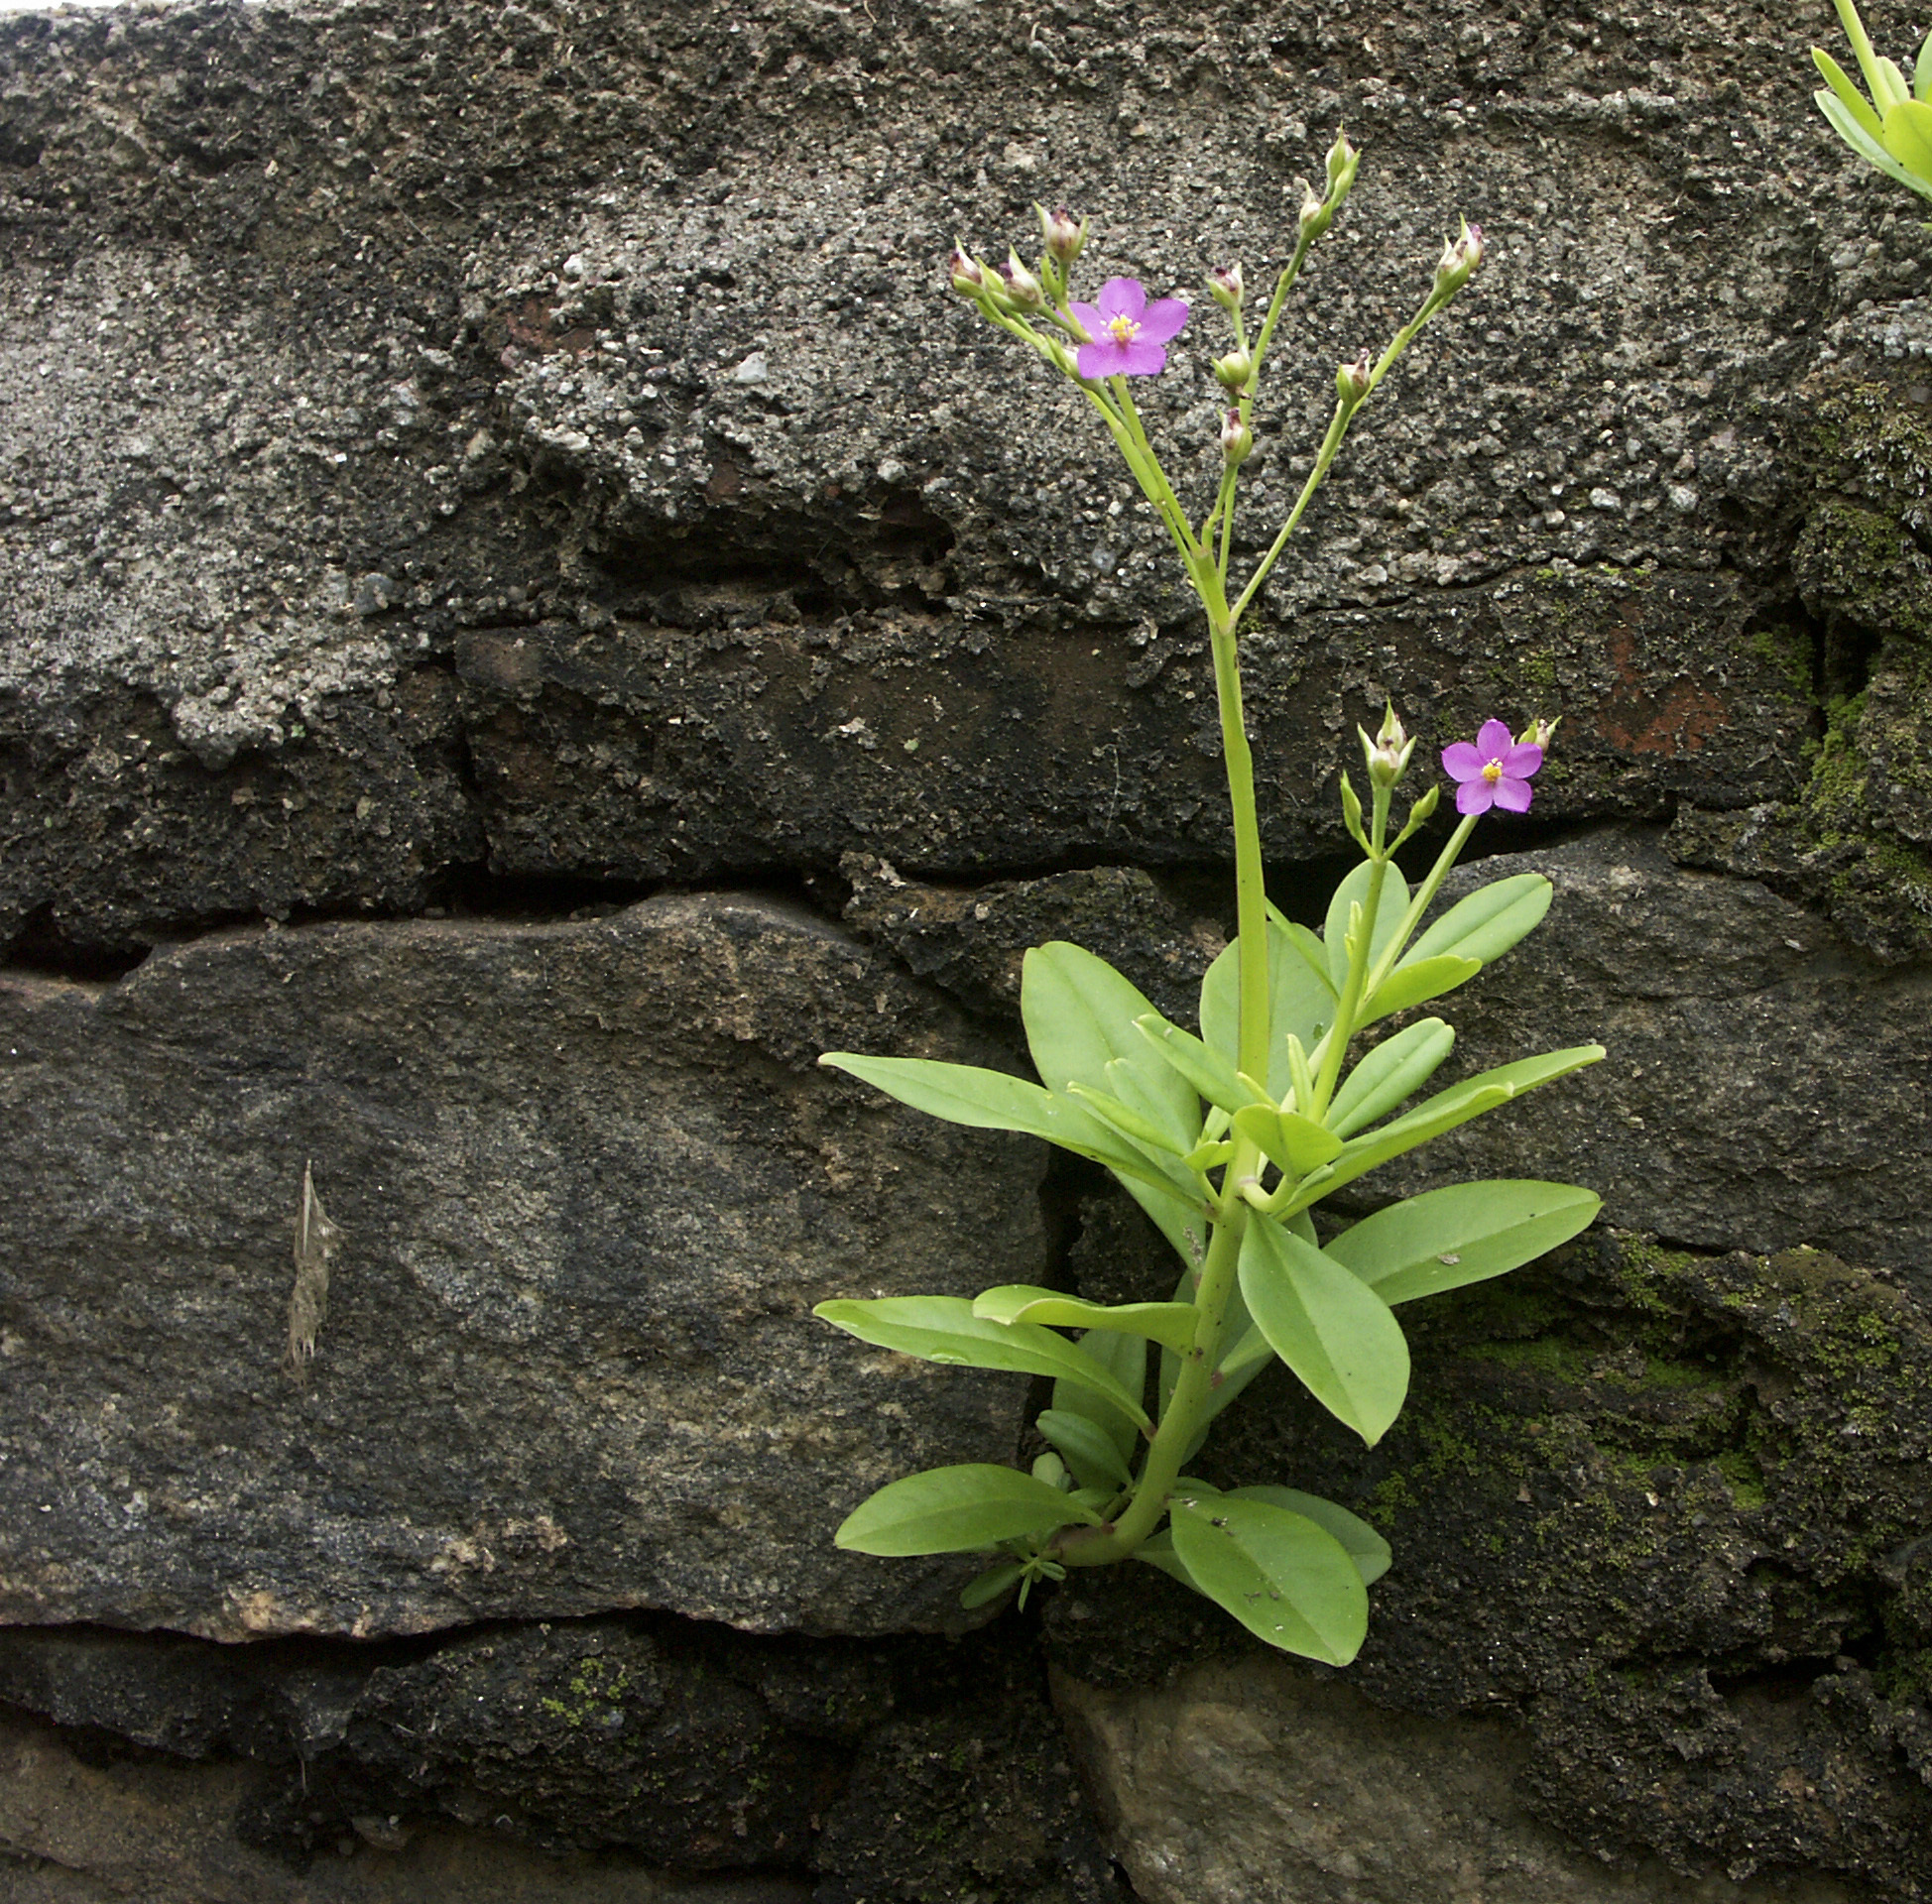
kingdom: Plantae
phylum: Tracheophyta
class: Magnoliopsida
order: Caryophyllales
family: Talinaceae
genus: Talinum
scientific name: Talinum fruticosum
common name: Verdolaga-francesa
